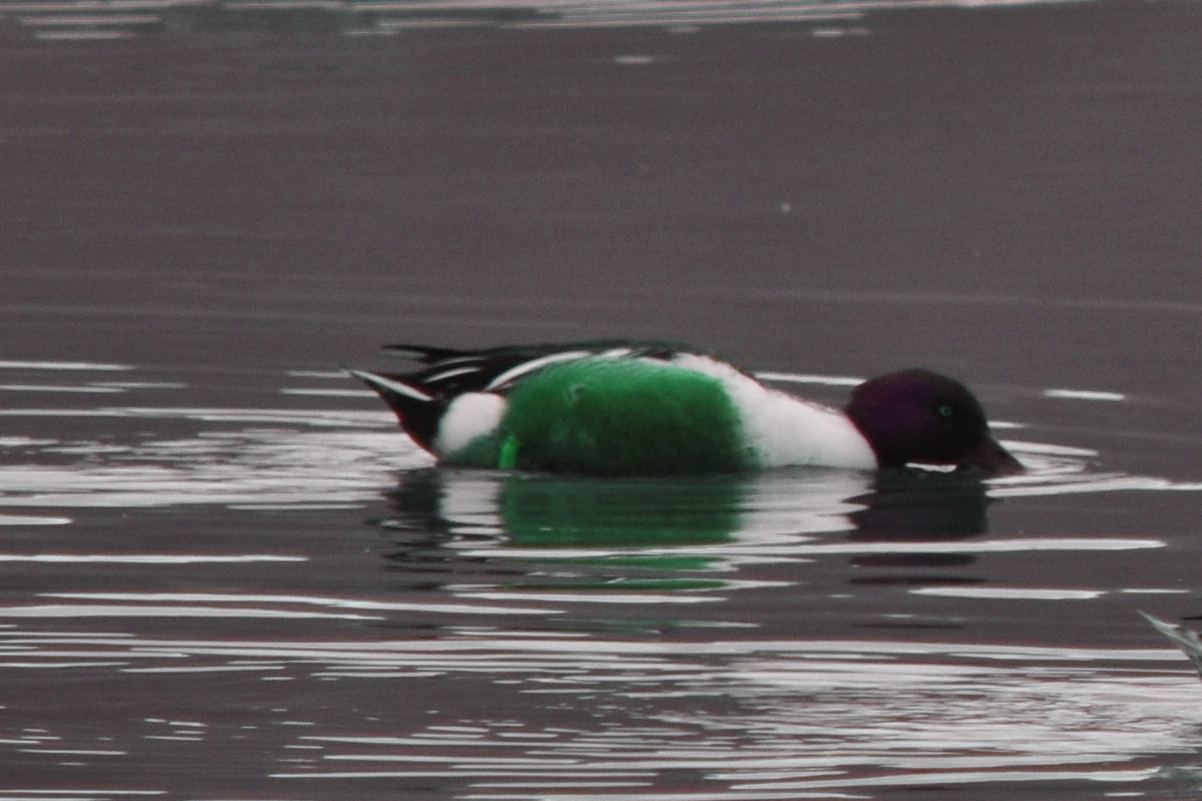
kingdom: Animalia
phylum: Chordata
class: Aves
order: Anseriformes
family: Anatidae
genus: Spatula
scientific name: Spatula clypeata
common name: Northern shoveler
